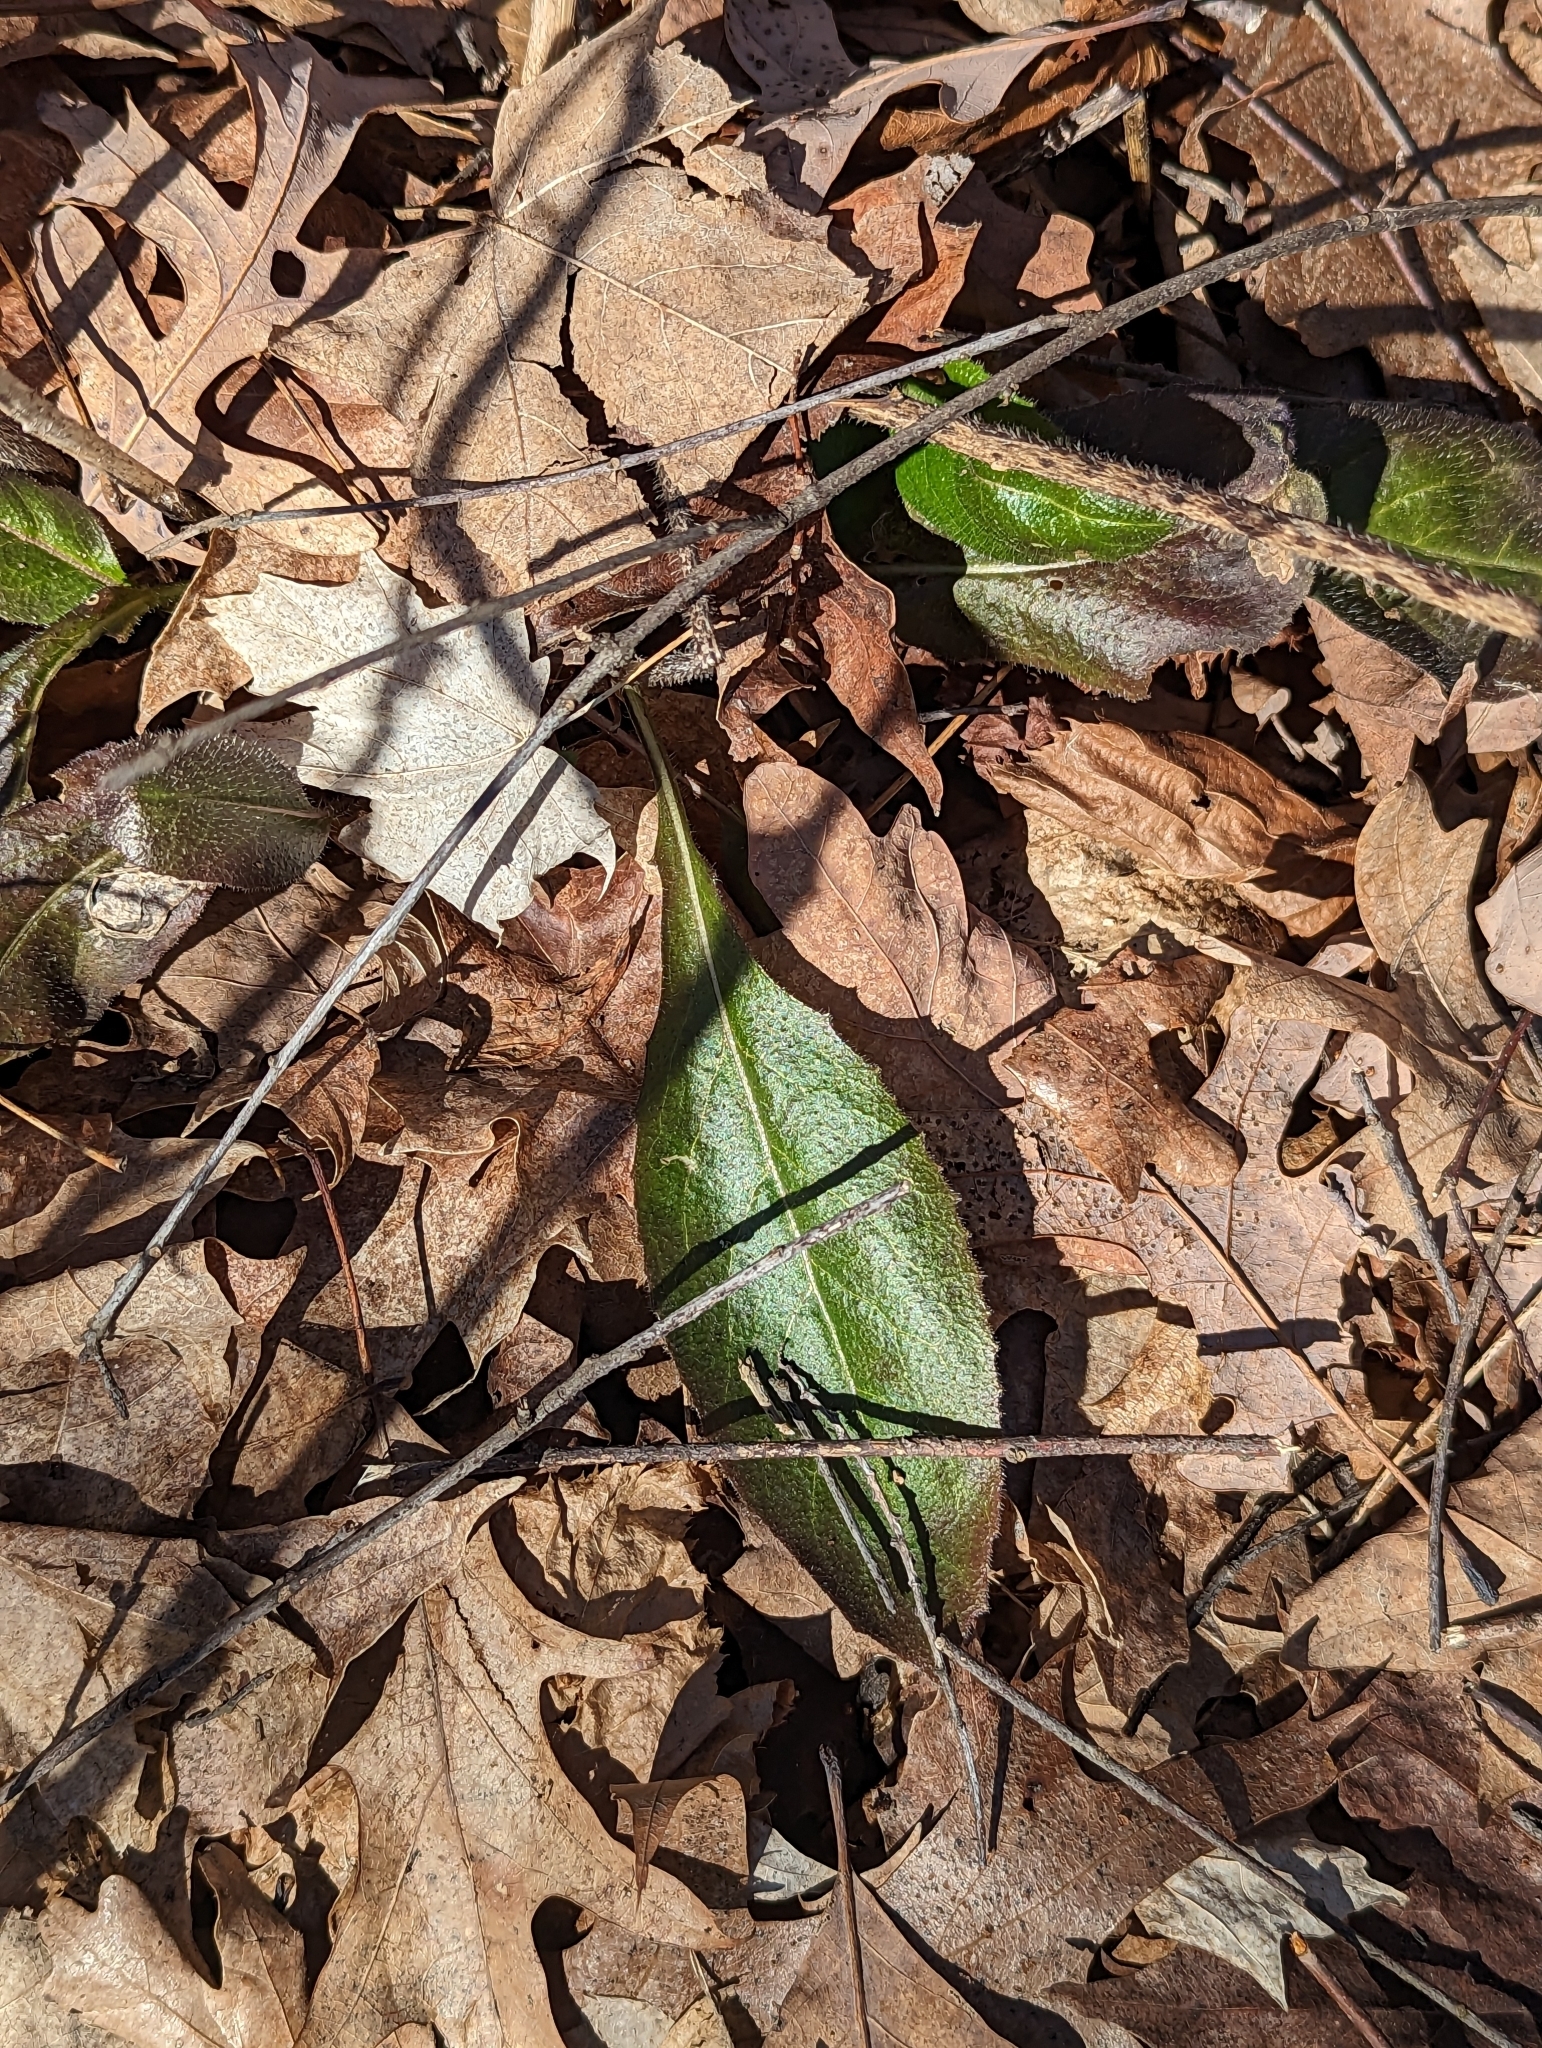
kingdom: Plantae
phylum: Tracheophyta
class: Magnoliopsida
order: Brassicales
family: Brassicaceae
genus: Hesperis
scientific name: Hesperis matronalis
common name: Dame's-violet
